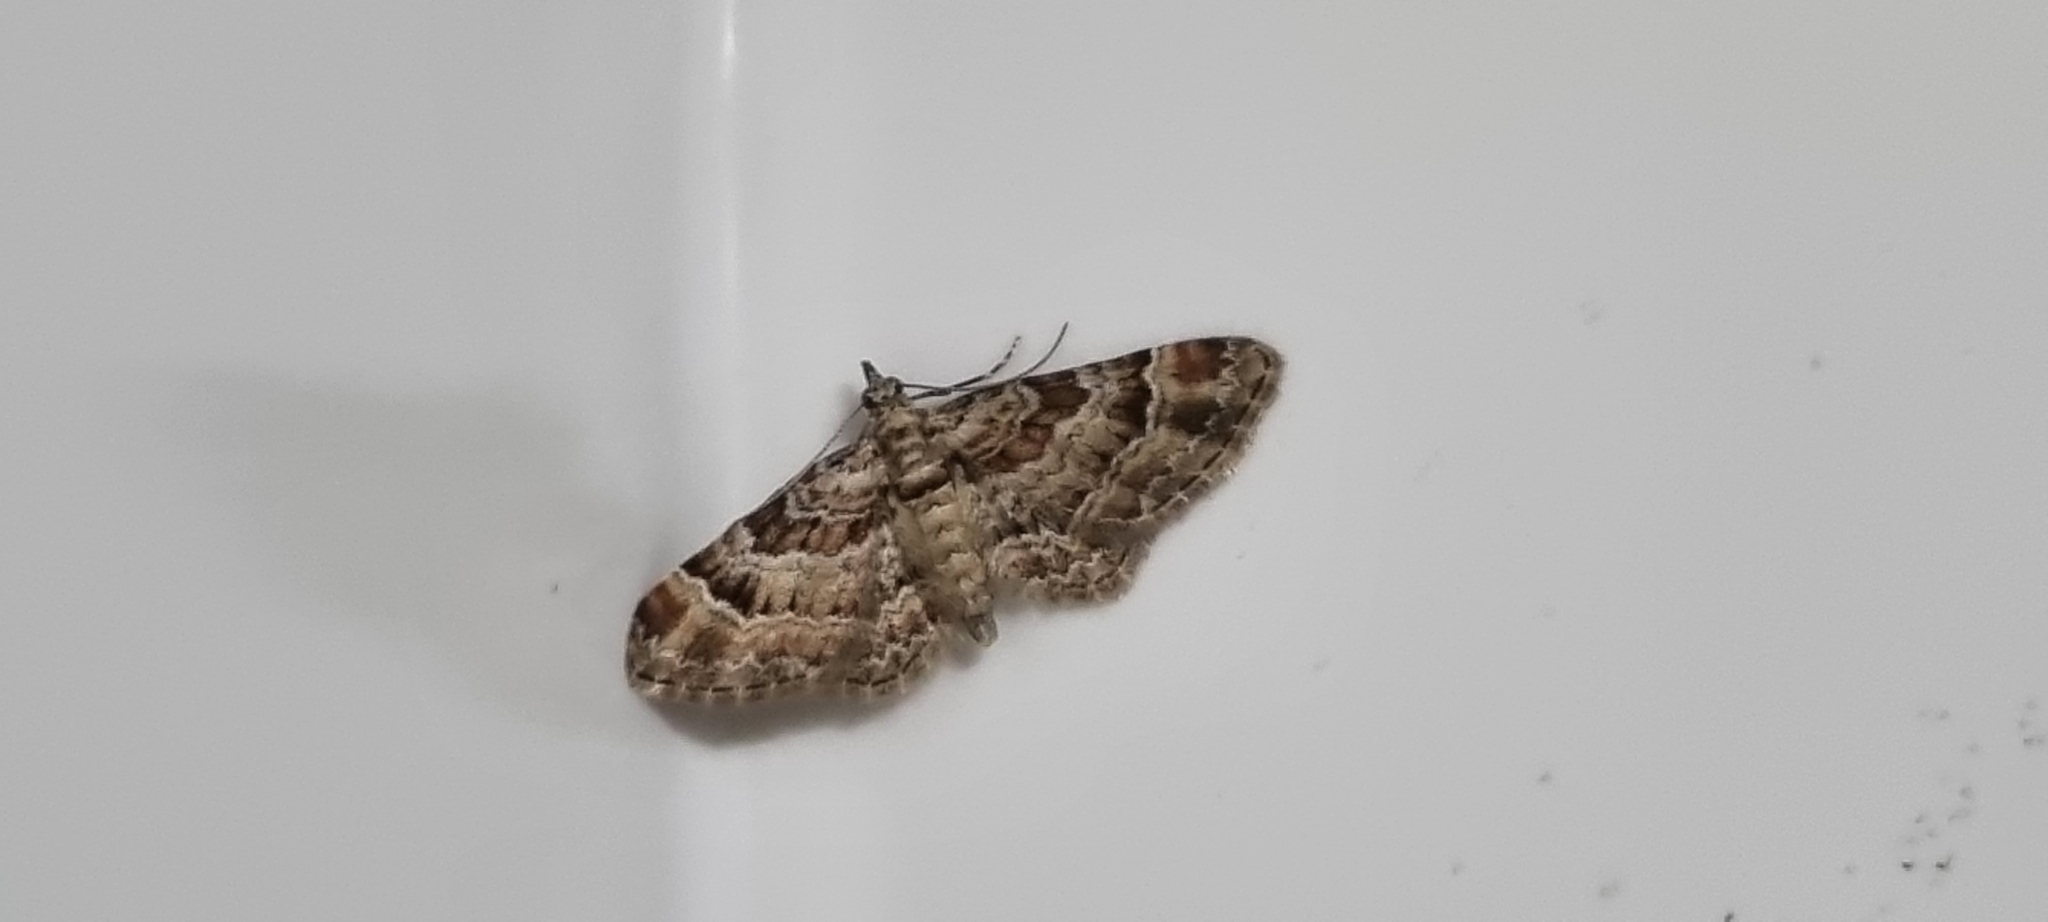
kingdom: Animalia
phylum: Arthropoda
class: Insecta
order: Lepidoptera
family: Geometridae
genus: Gymnoscelis
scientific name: Gymnoscelis rufifasciata
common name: Double-striped pug
